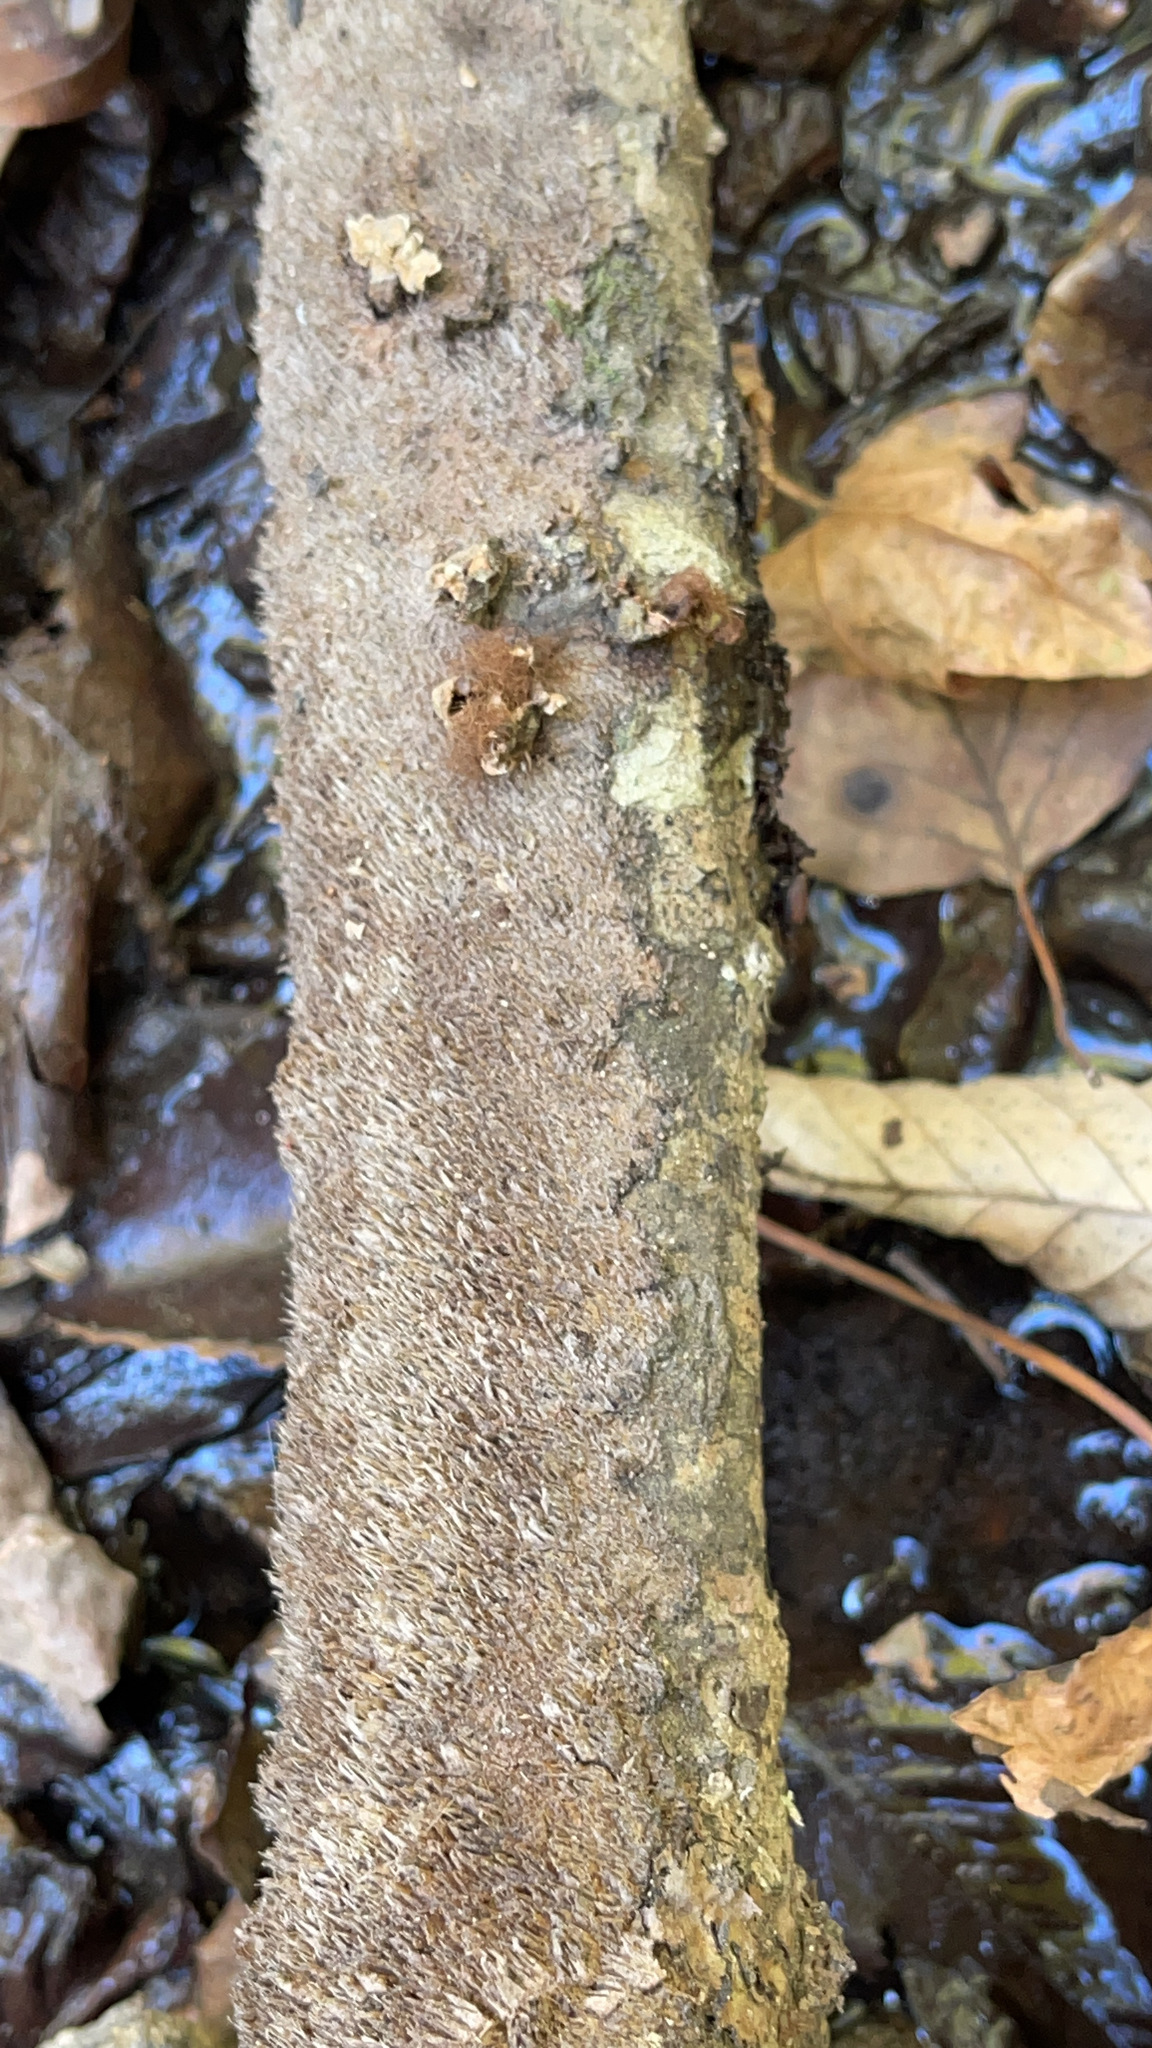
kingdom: Fungi
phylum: Basidiomycota
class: Agaricomycetes
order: Hymenochaetales
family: Hymenochaetaceae
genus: Hydnoporia
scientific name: Hydnoporia olivacea
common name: Brown-toothed crust fungus
